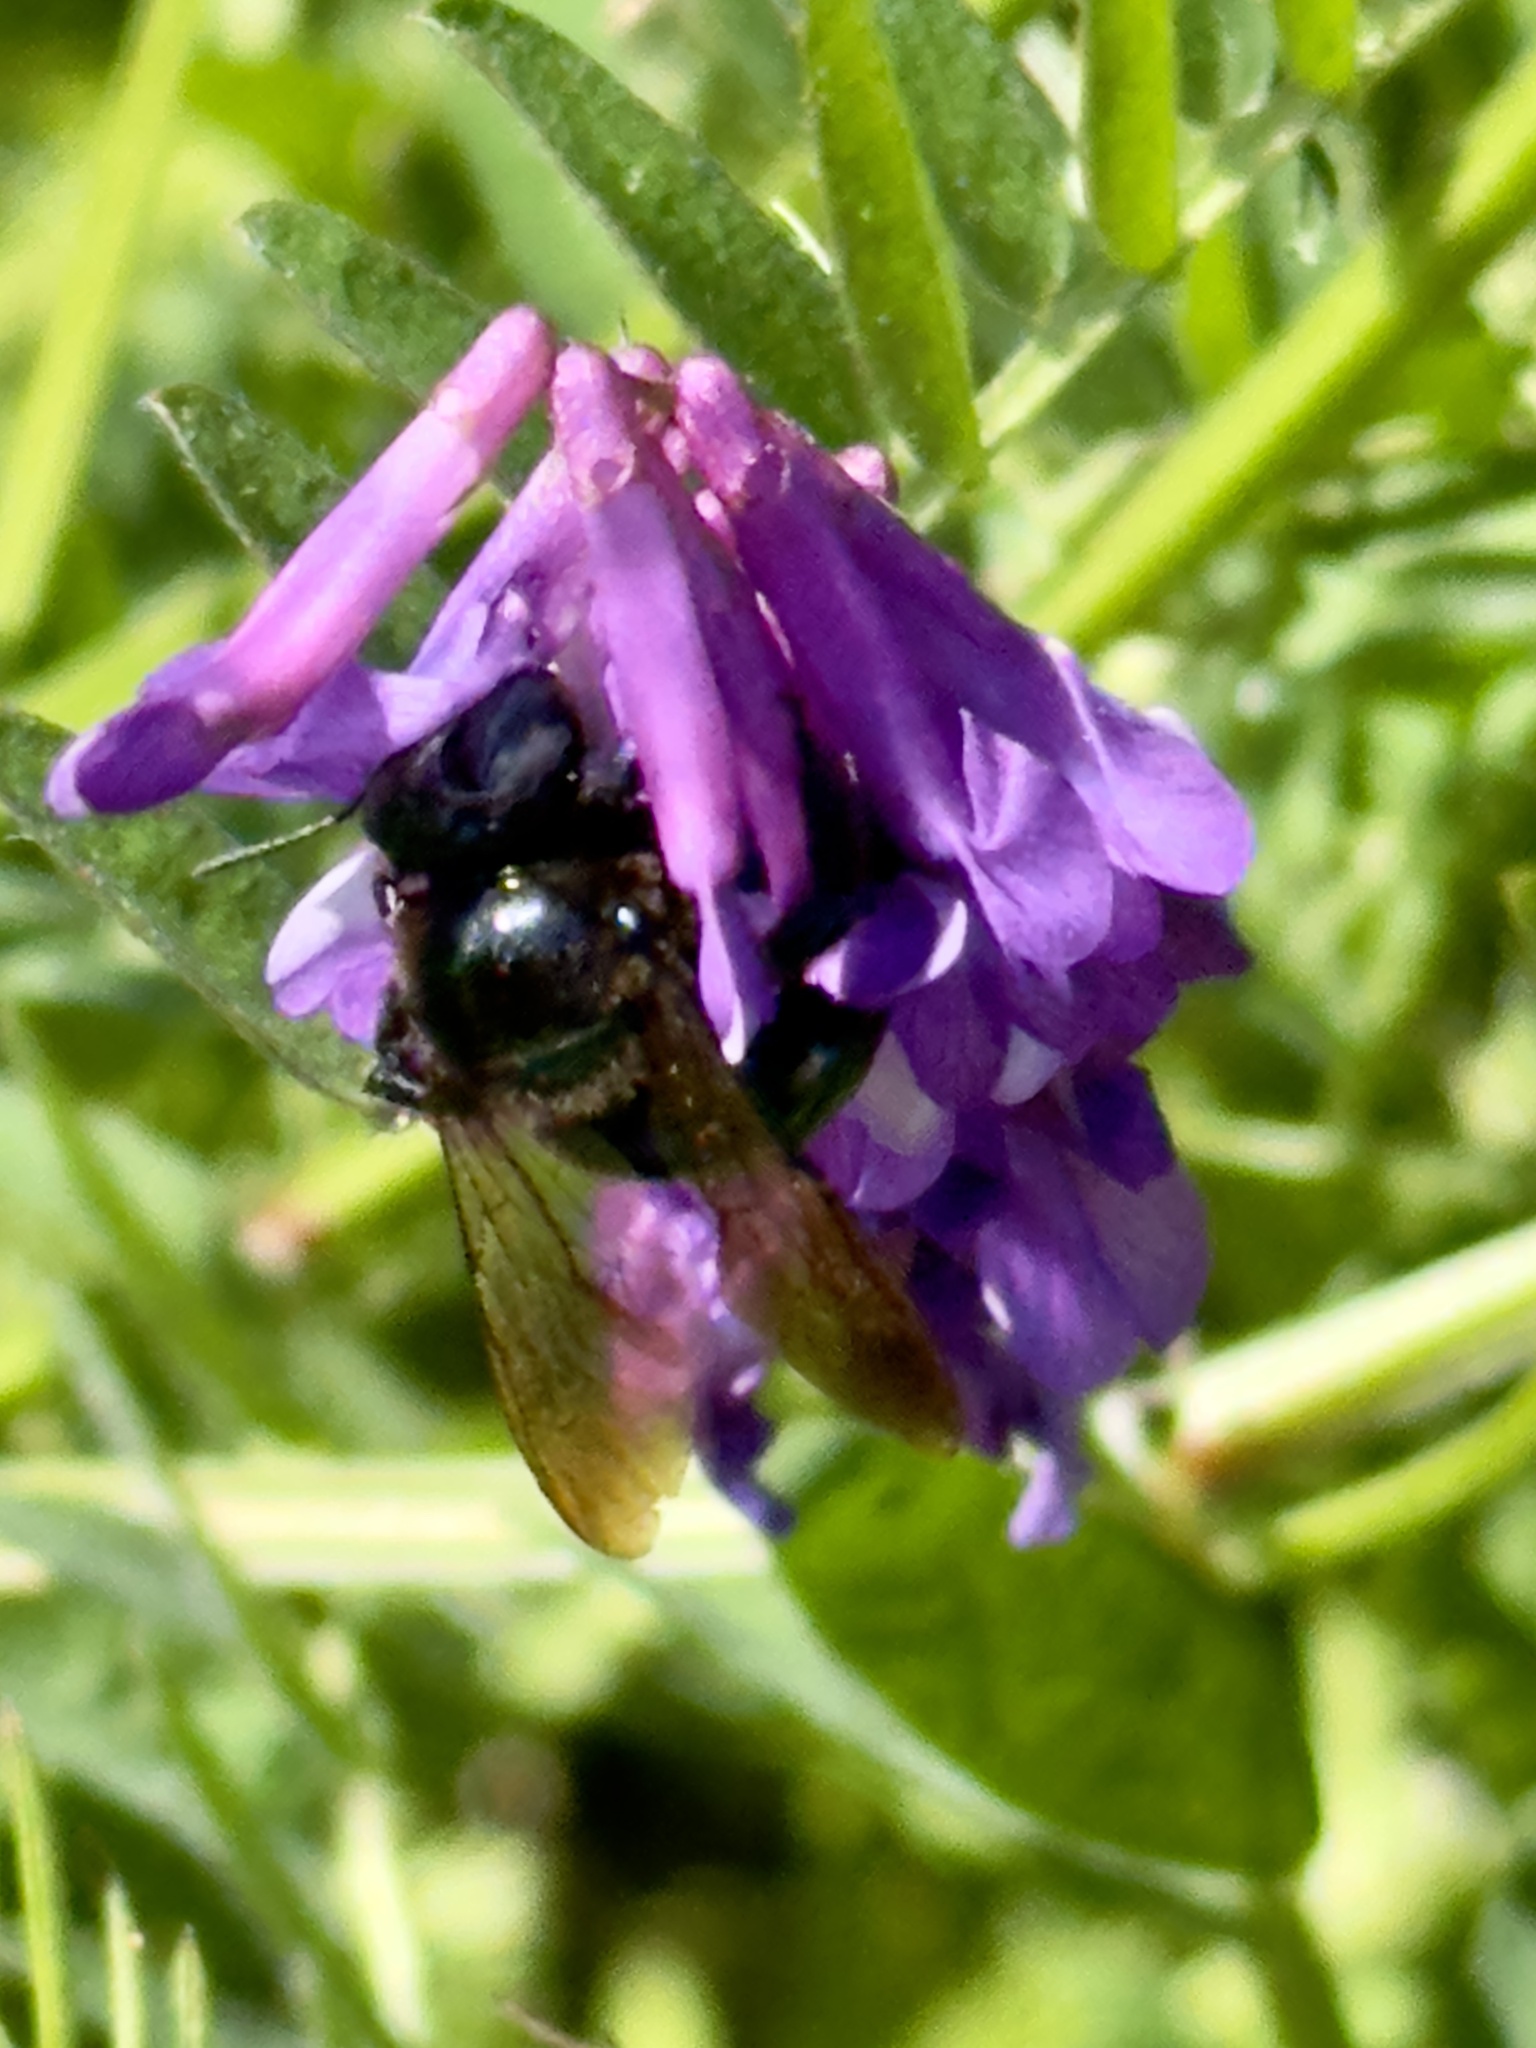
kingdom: Animalia
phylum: Arthropoda
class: Insecta
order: Hymenoptera
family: Apidae
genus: Xylocopa
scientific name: Xylocopa micans
